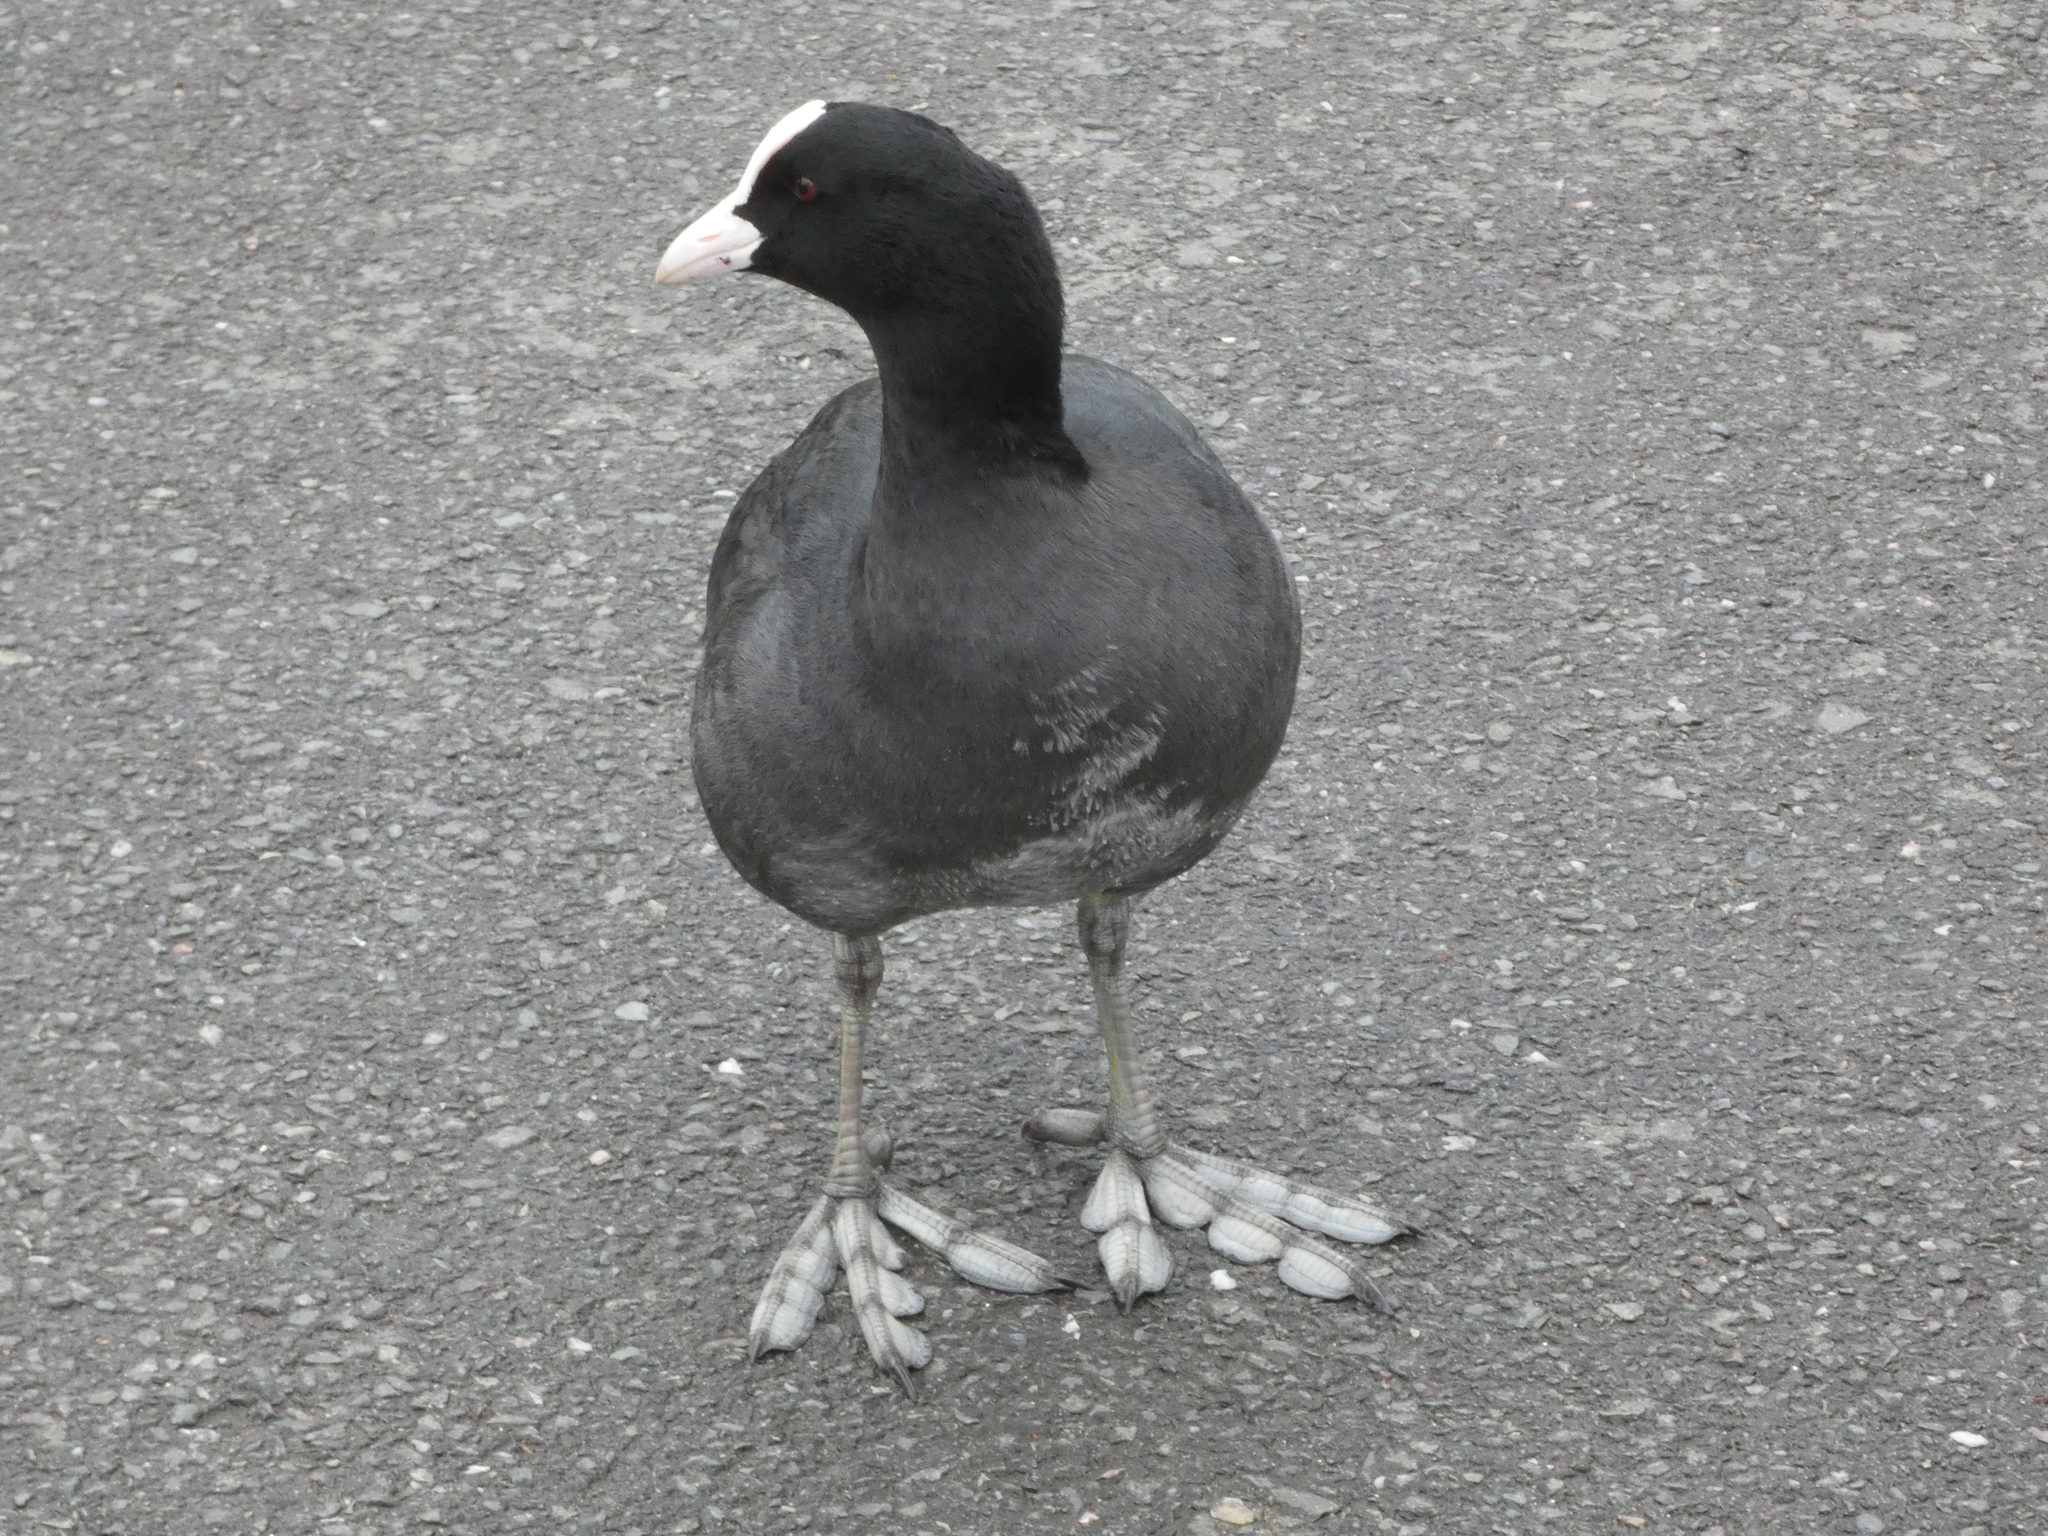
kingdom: Animalia
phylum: Chordata
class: Aves
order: Gruiformes
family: Rallidae
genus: Fulica
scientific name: Fulica atra
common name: Eurasian coot
